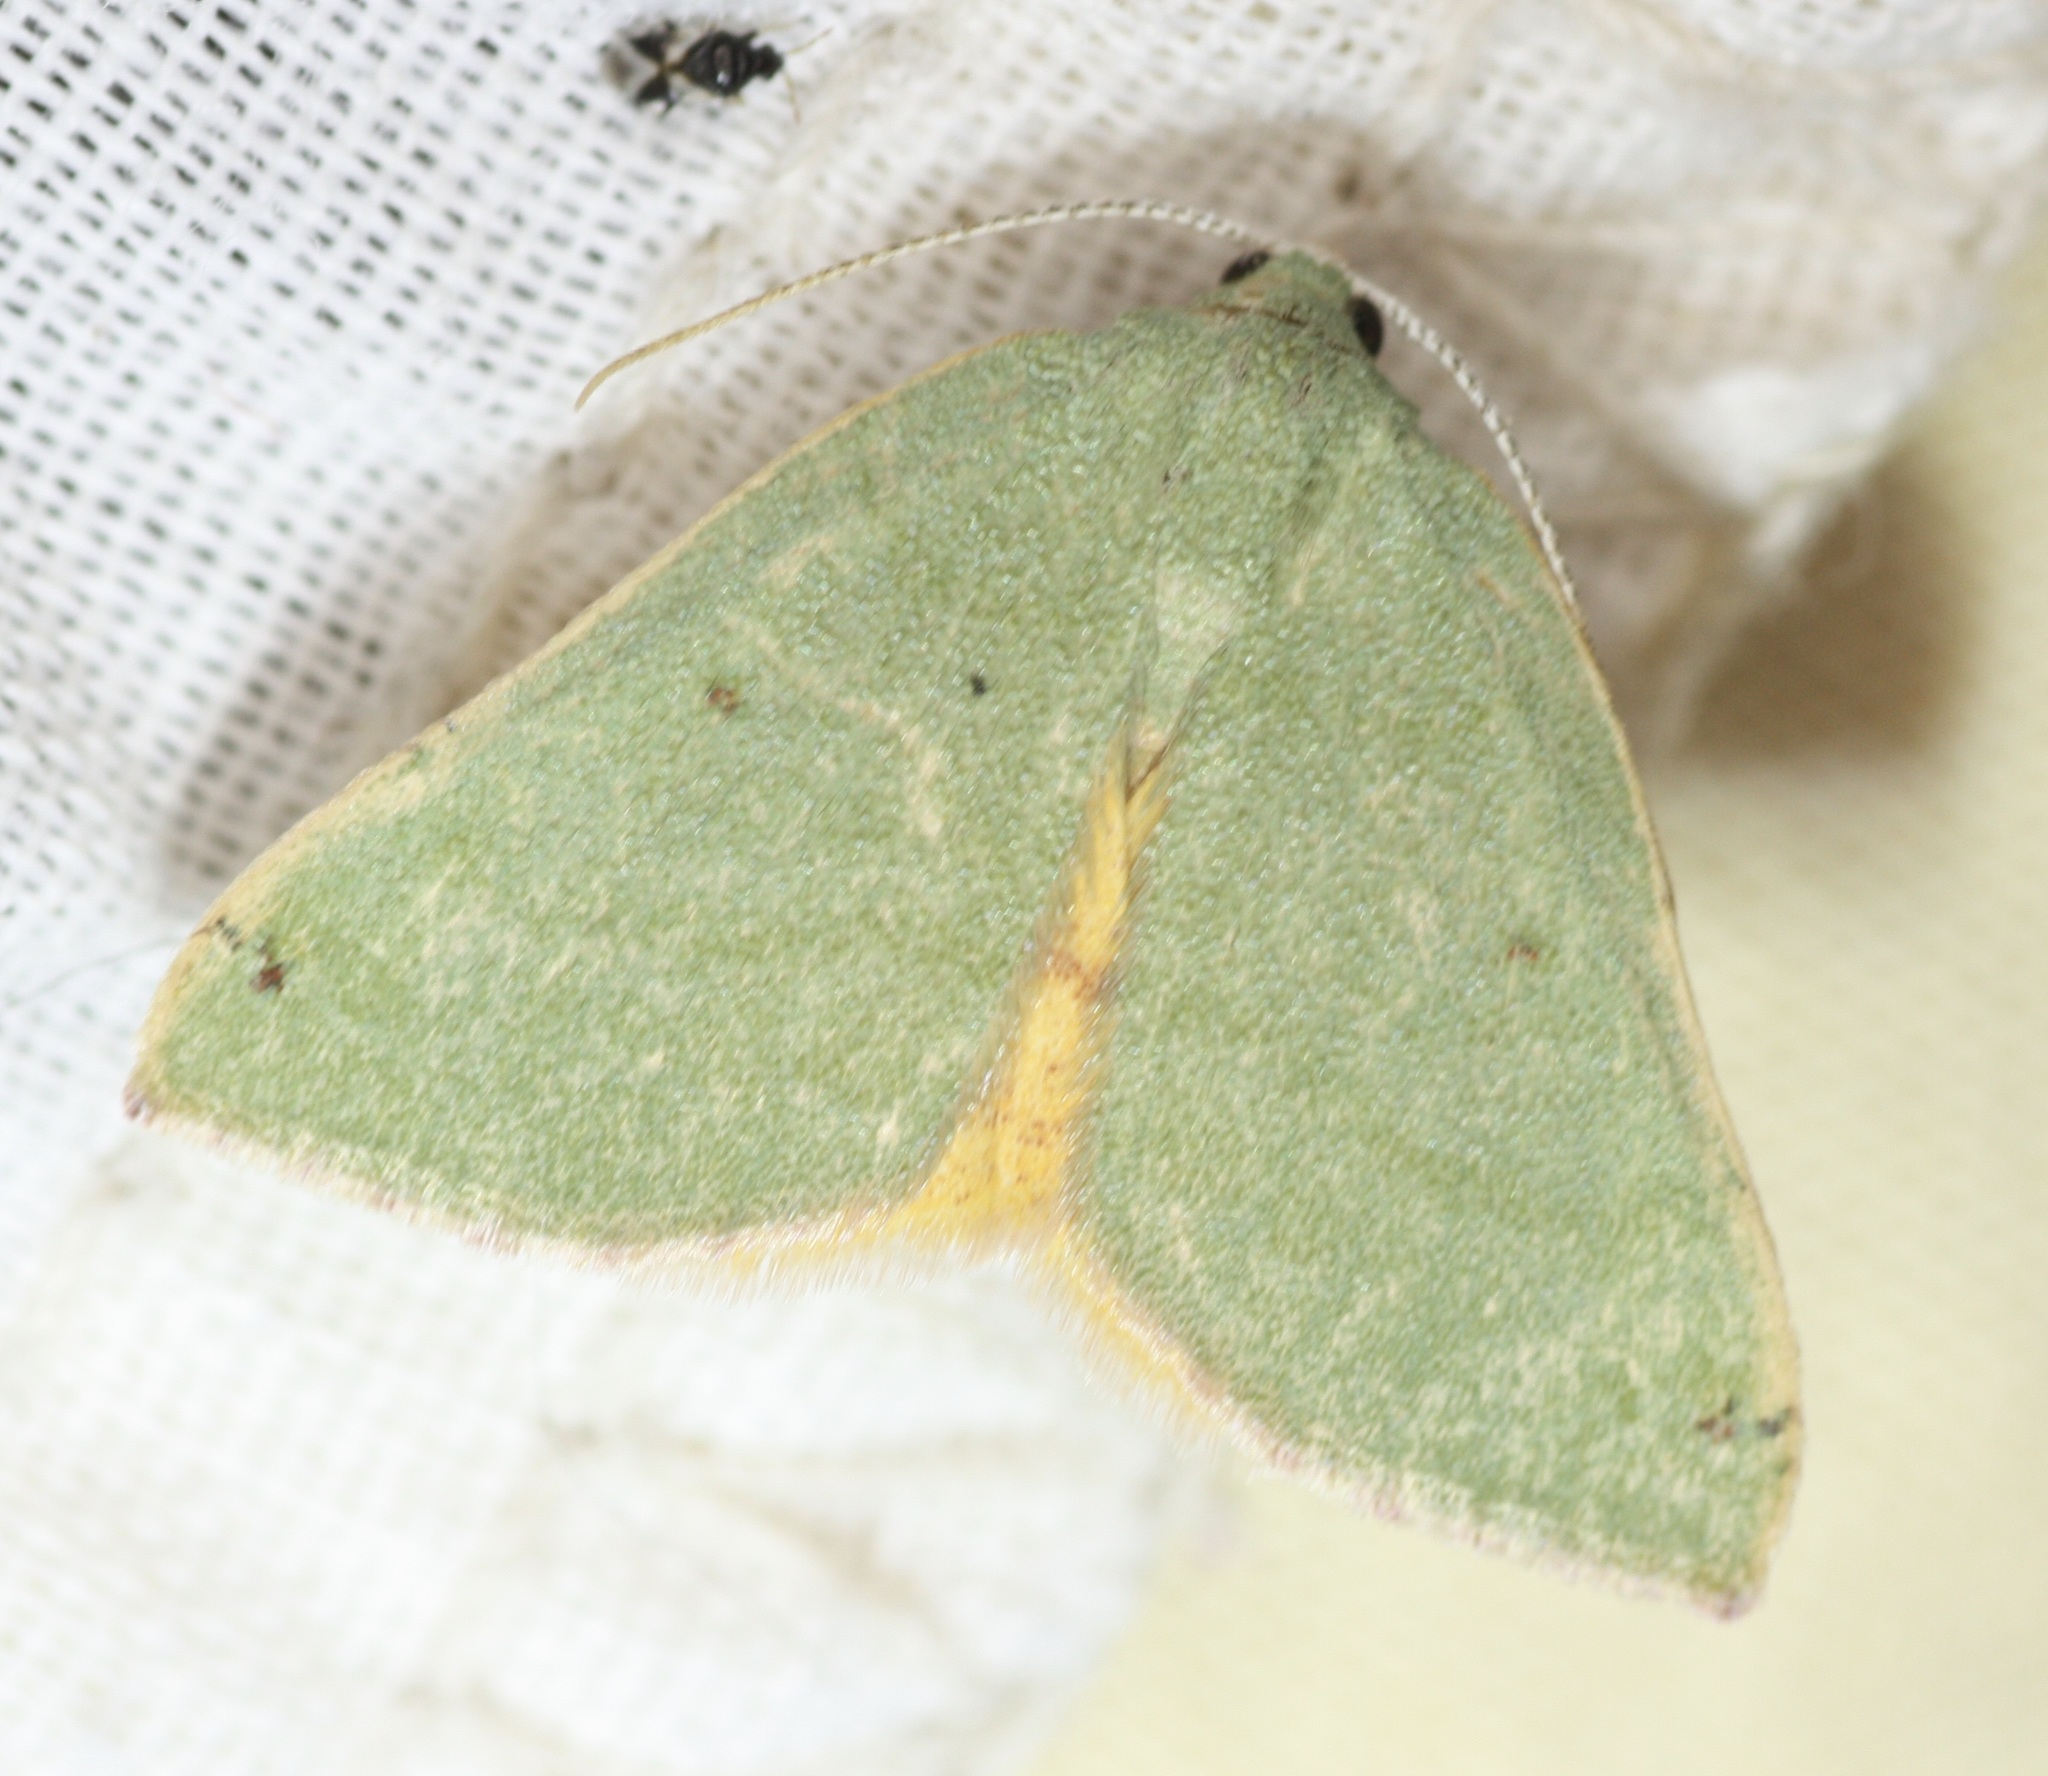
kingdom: Animalia
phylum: Arthropoda
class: Insecta
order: Lepidoptera
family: Geometridae
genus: Chloraspilates
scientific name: Chloraspilates bicoloraria
